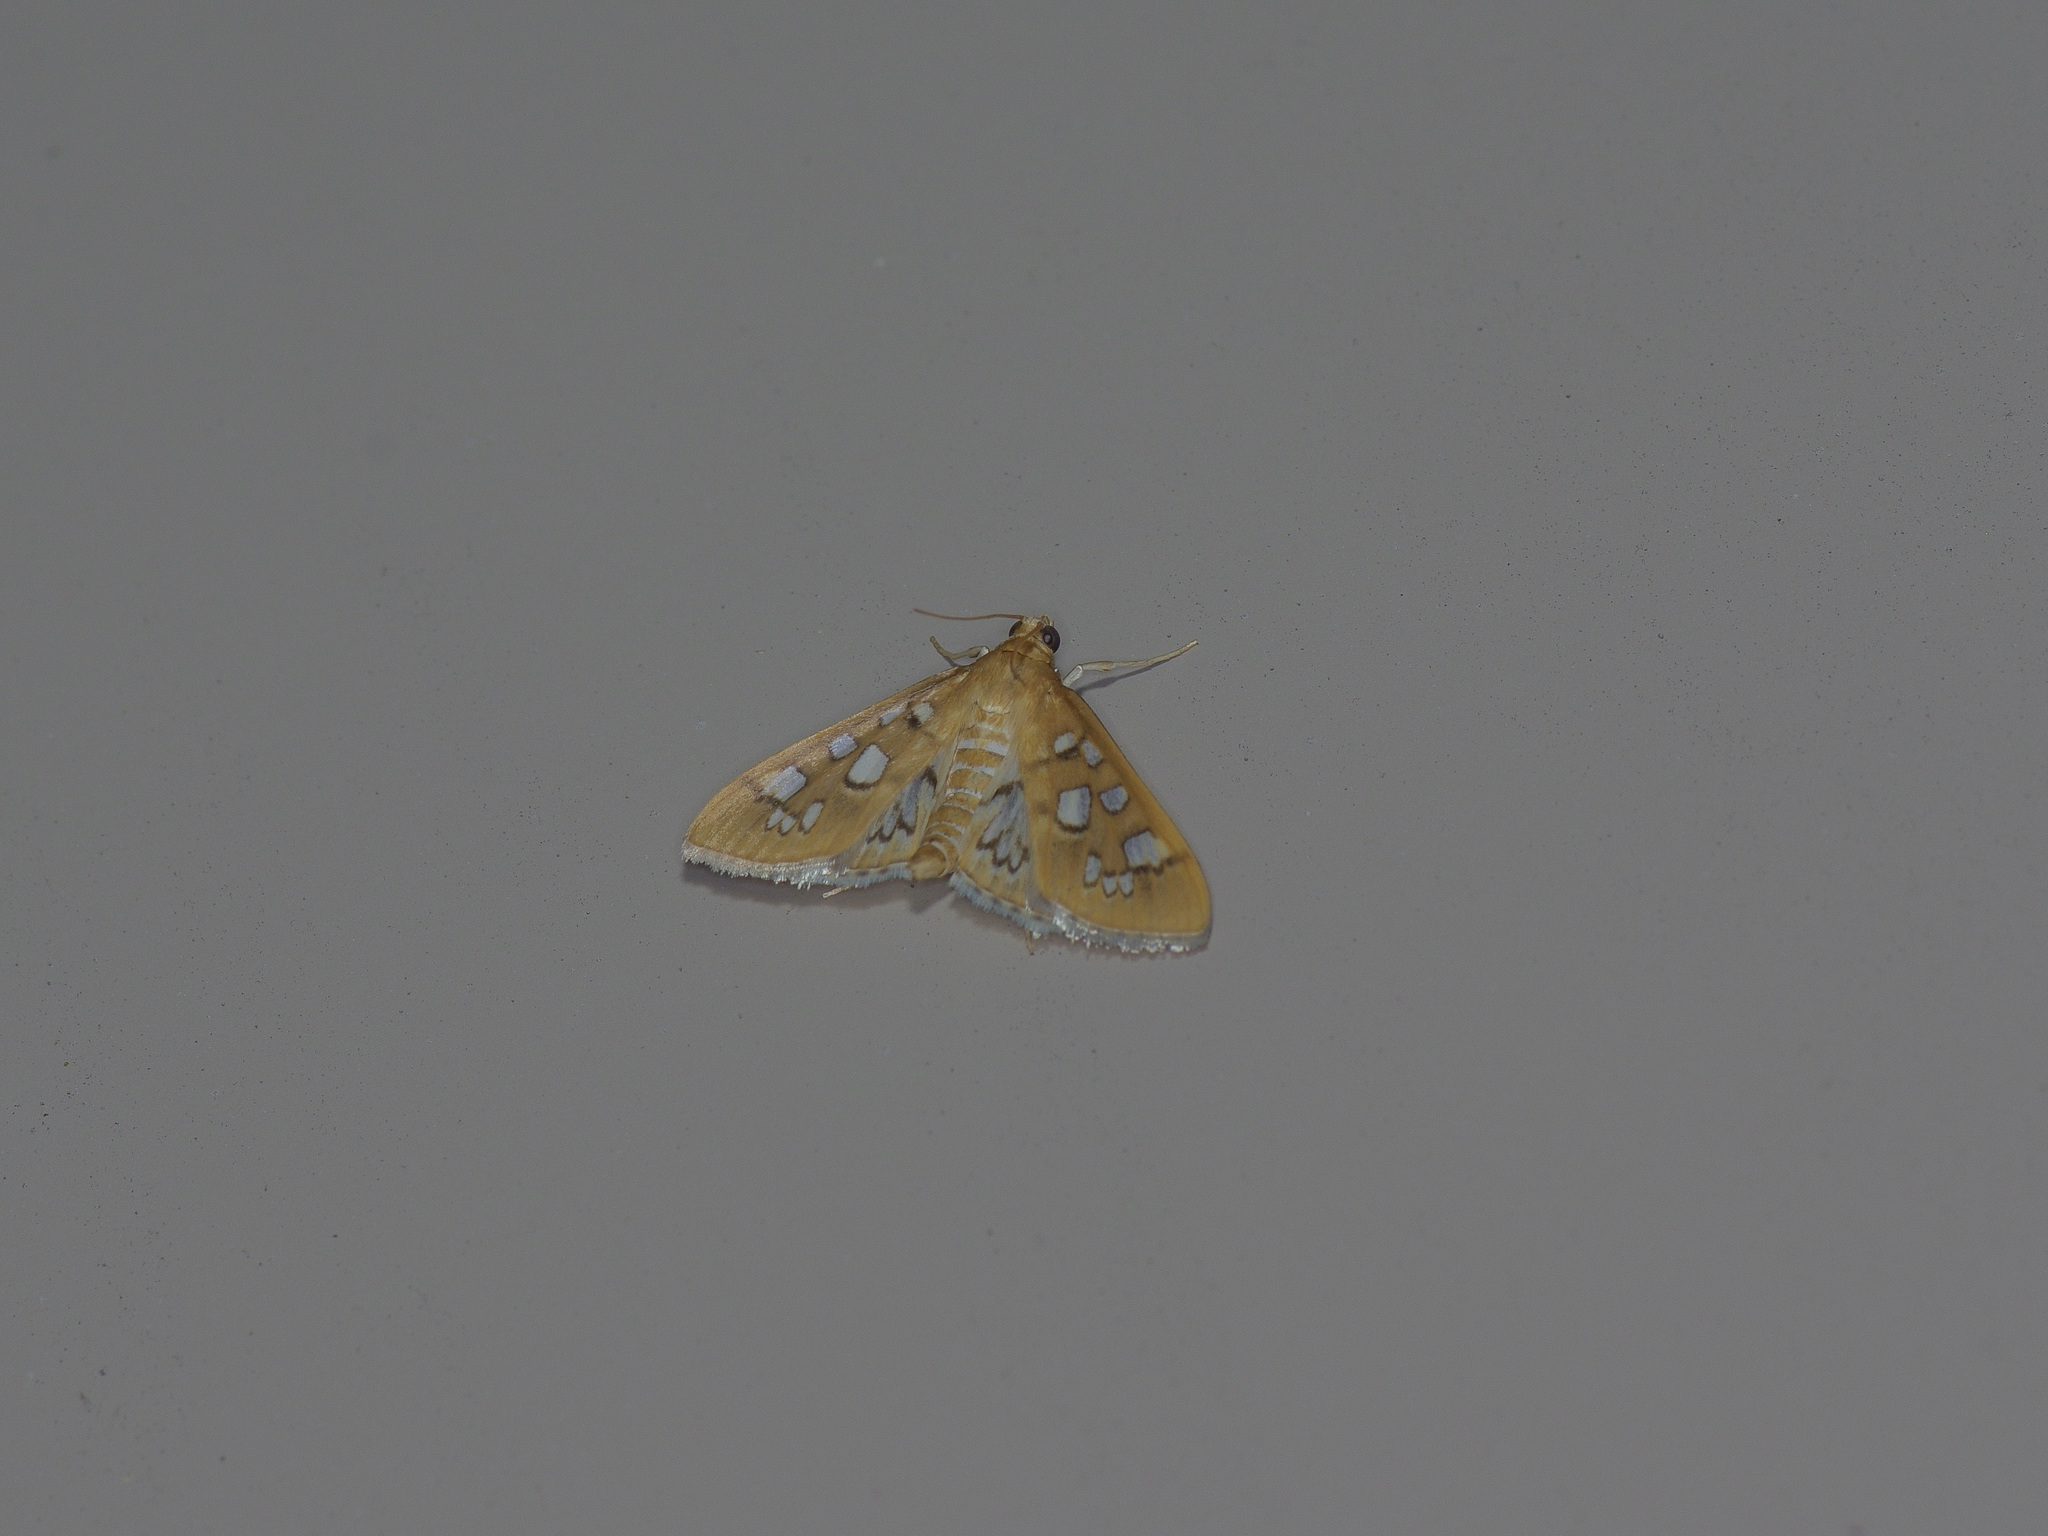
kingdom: Animalia
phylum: Arthropoda
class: Insecta
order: Lepidoptera
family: Crambidae
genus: Samea
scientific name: Samea baccatalis
